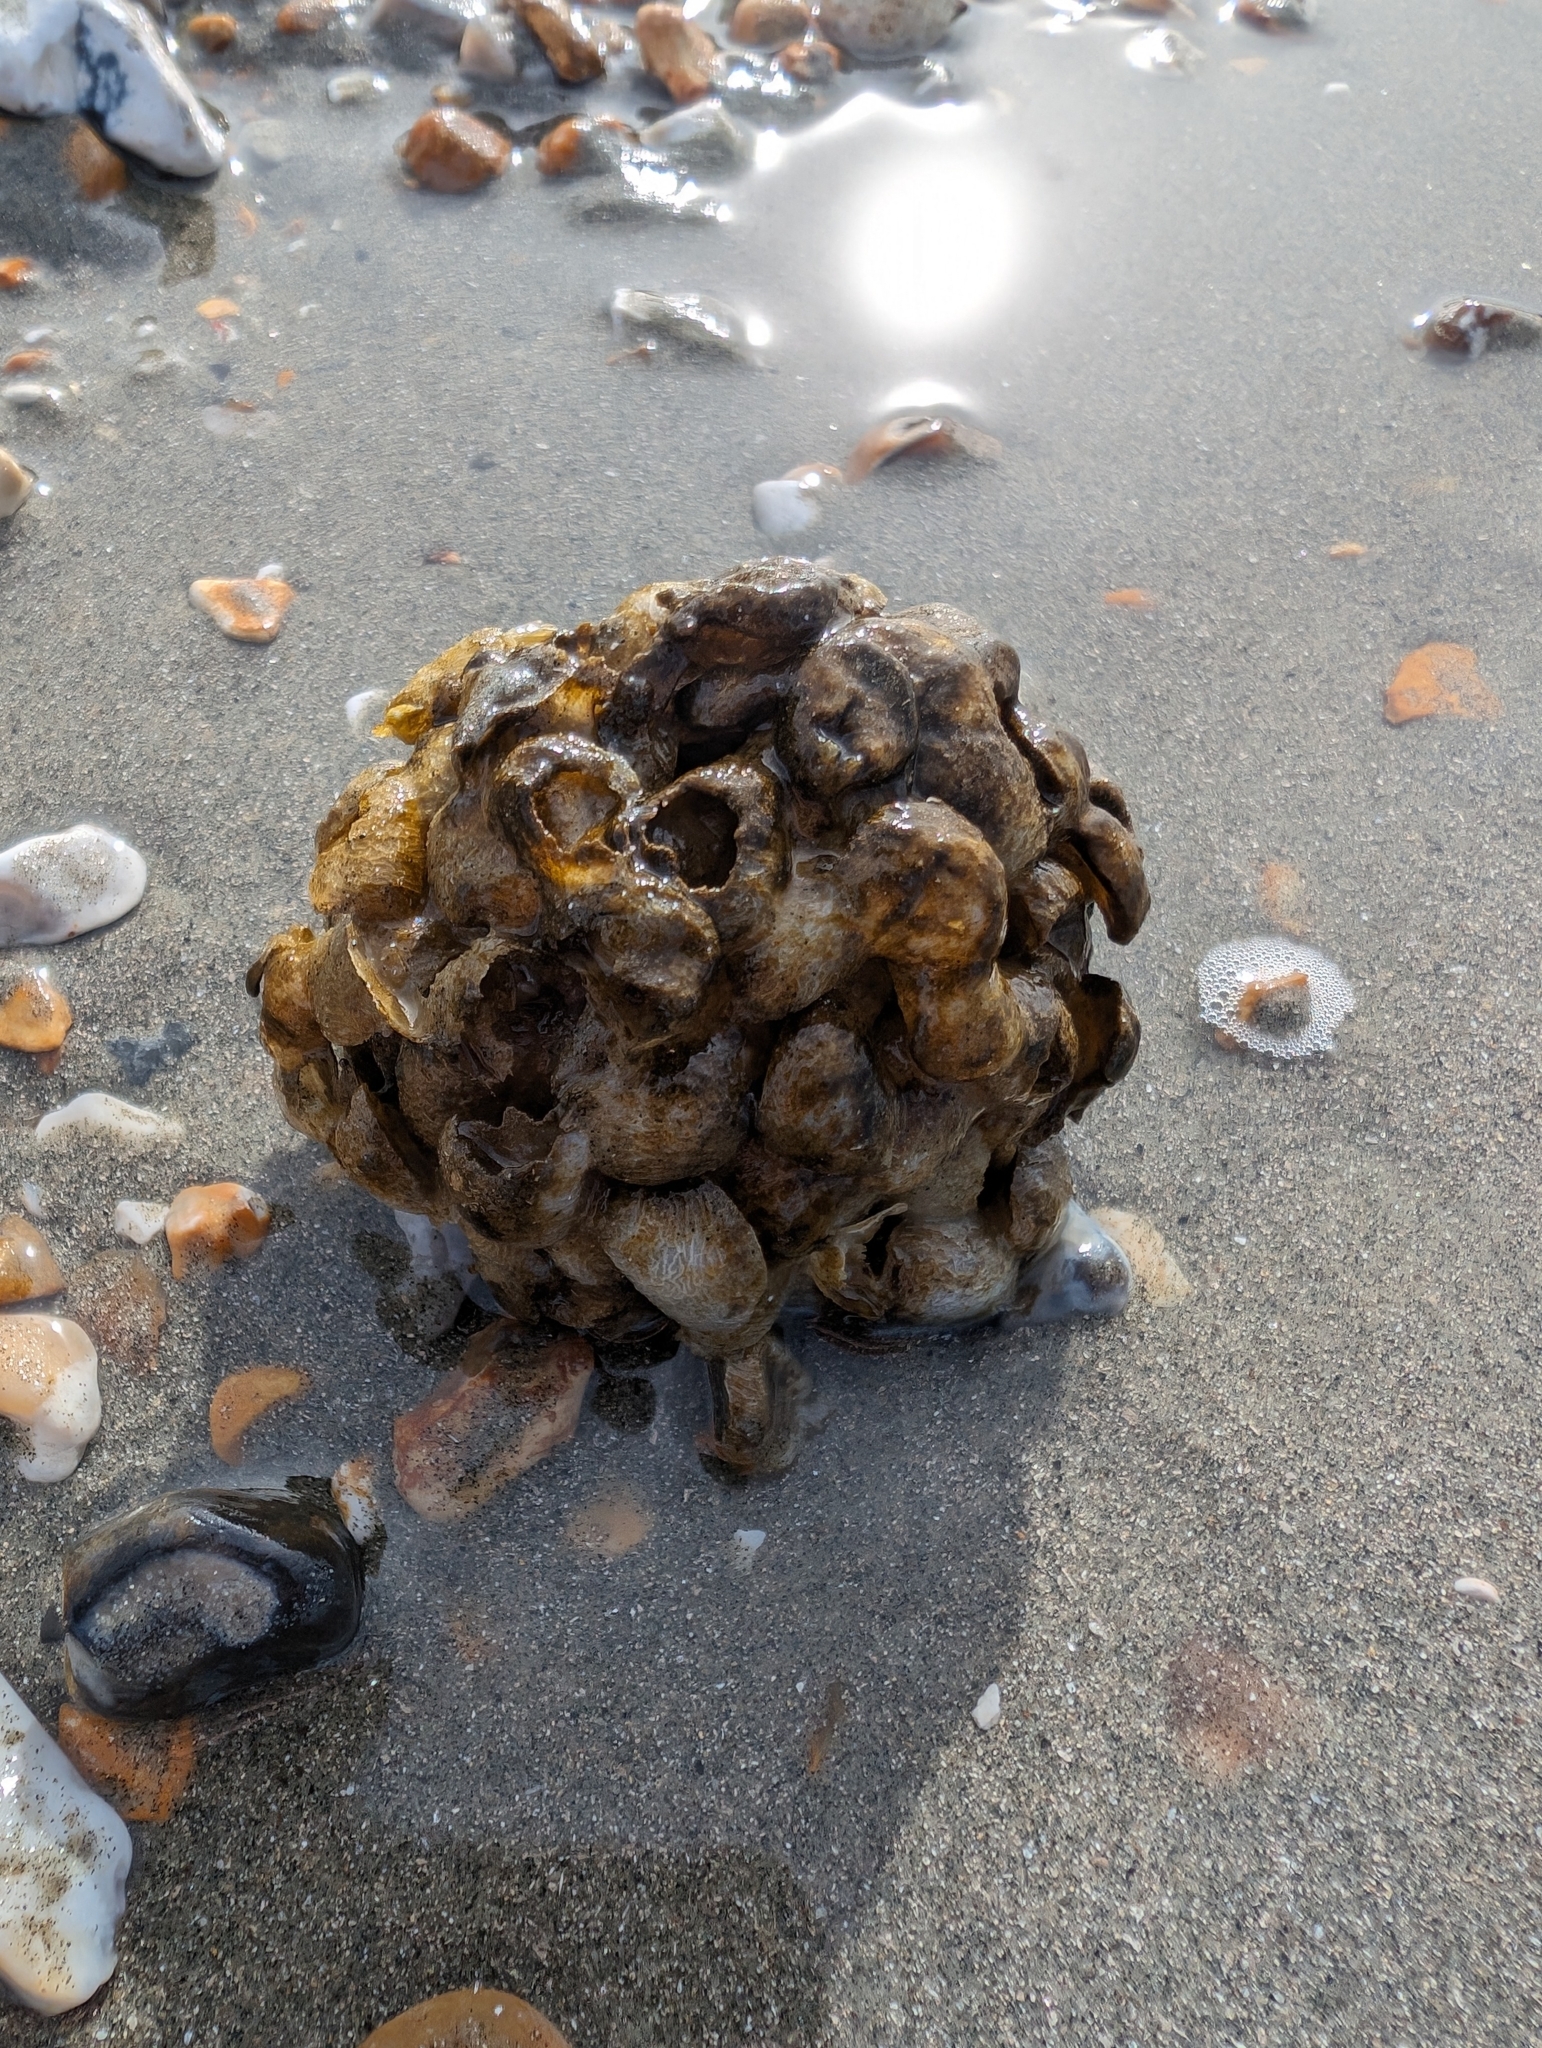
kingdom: Animalia
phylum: Mollusca
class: Gastropoda
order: Neogastropoda
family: Buccinidae
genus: Buccinum
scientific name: Buccinum undatum
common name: Common whelk
